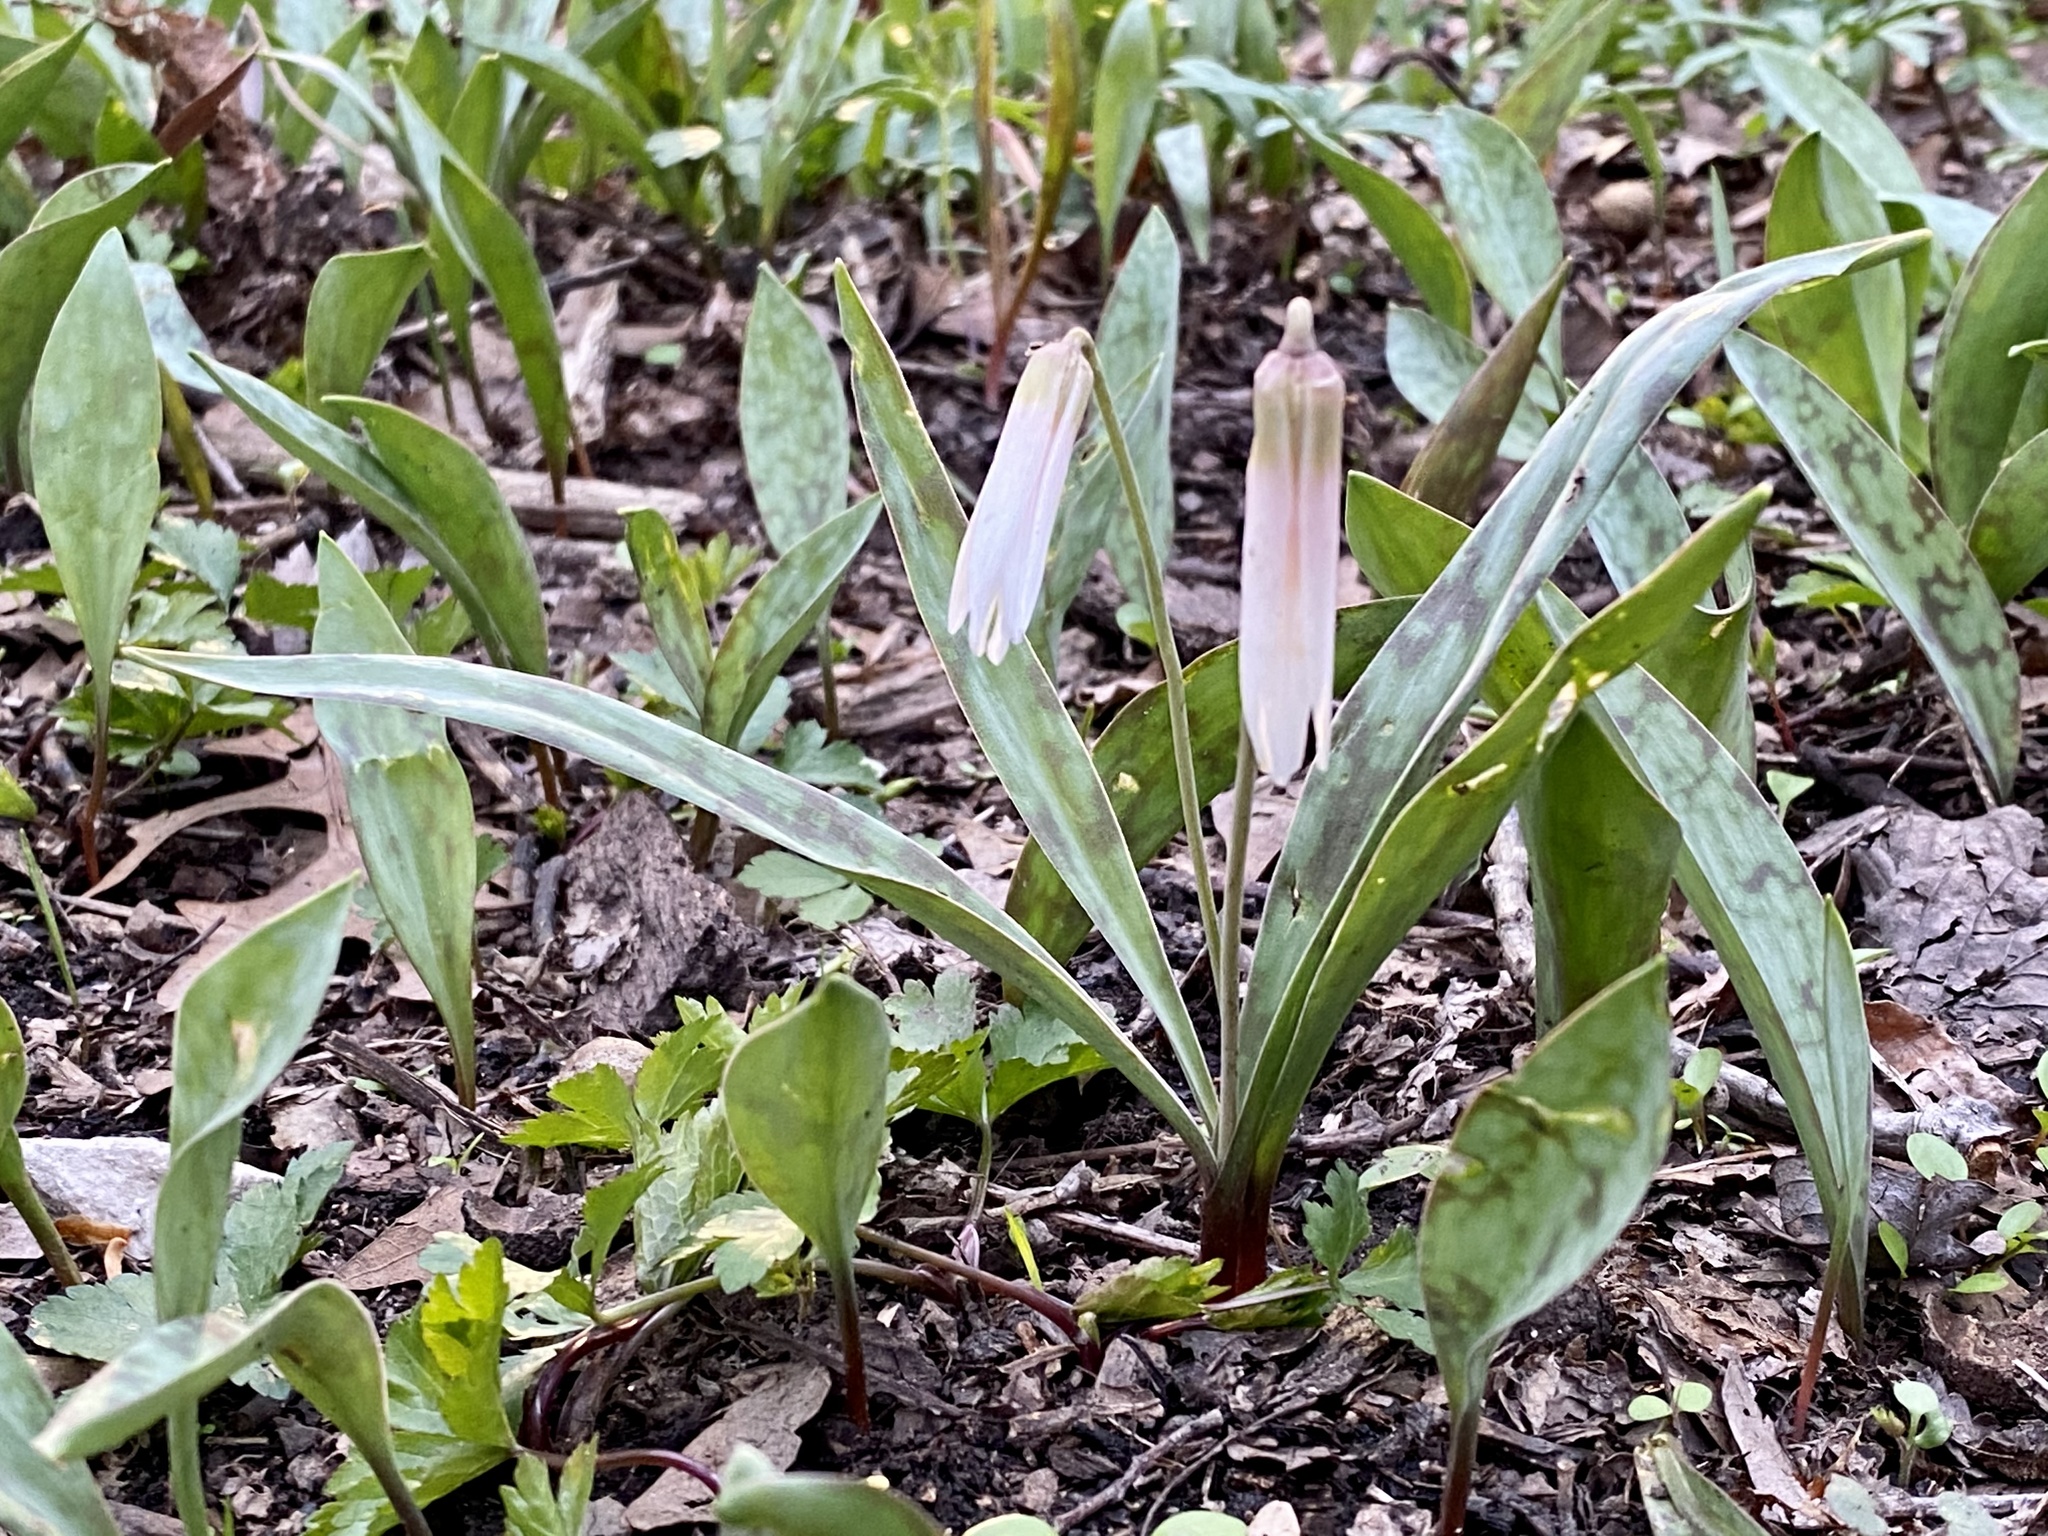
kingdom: Plantae
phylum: Tracheophyta
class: Liliopsida
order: Liliales
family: Liliaceae
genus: Erythronium
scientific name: Erythronium albidum
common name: White trout-lily
